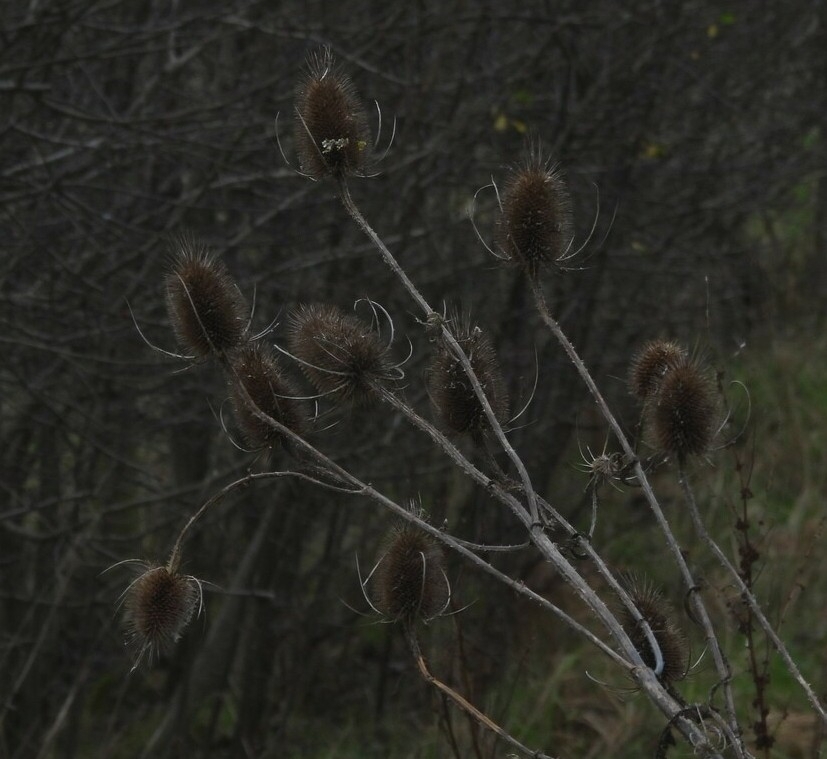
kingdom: Plantae
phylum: Tracheophyta
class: Magnoliopsida
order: Dipsacales
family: Caprifoliaceae
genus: Dipsacus
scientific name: Dipsacus fullonum
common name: Teasel
